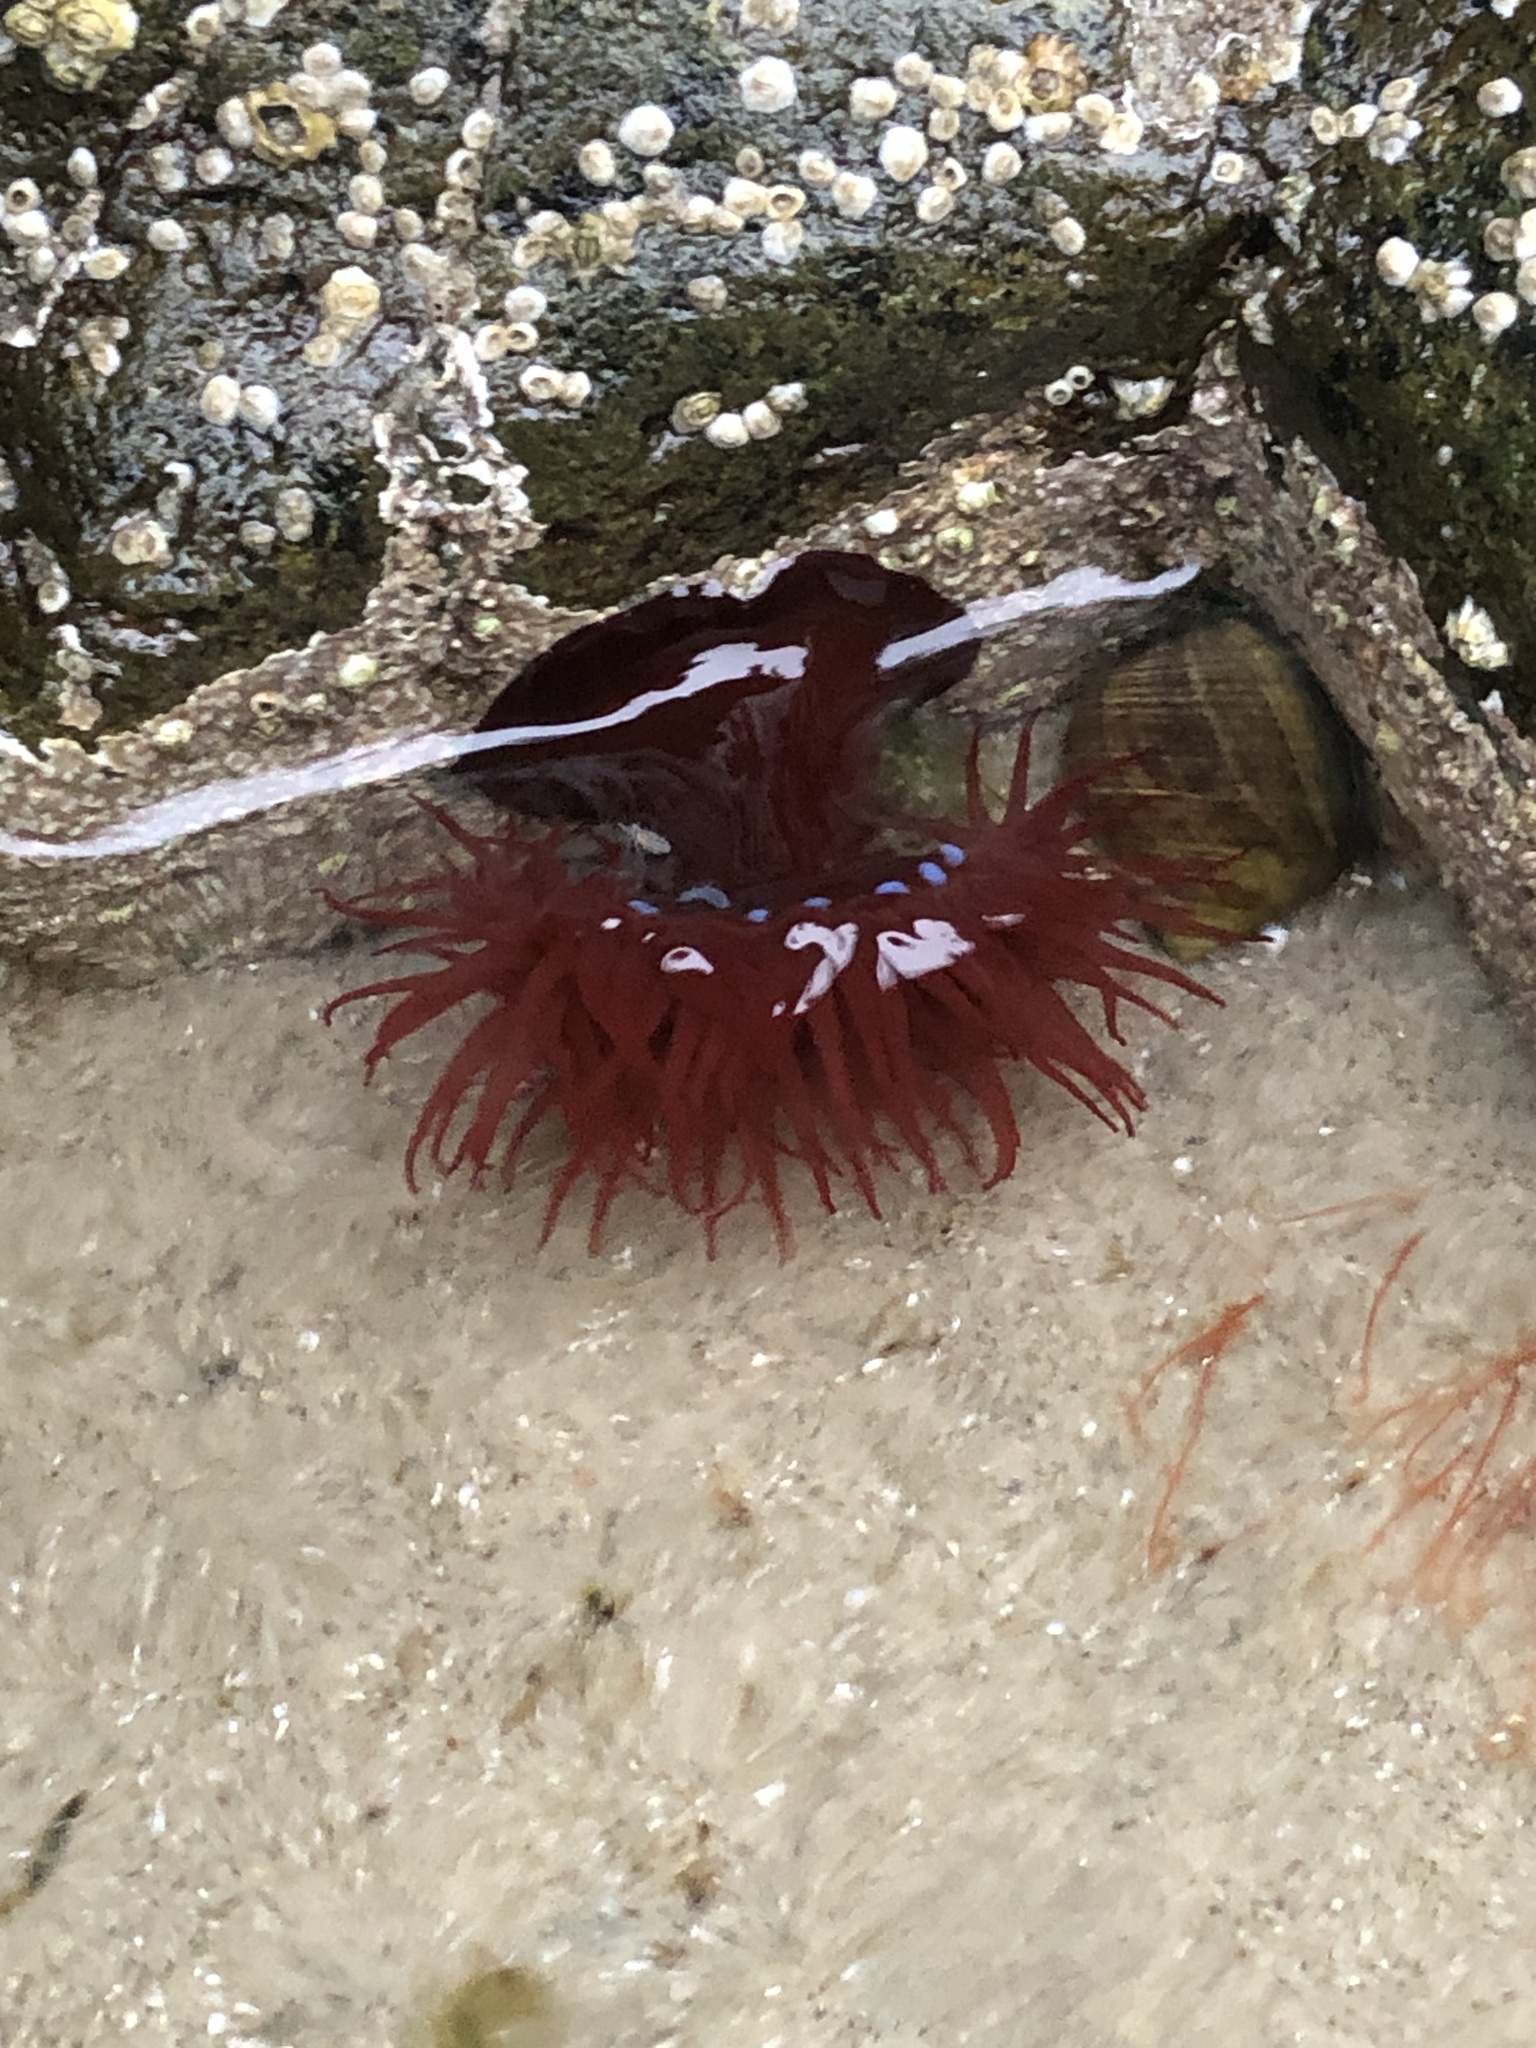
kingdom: Animalia
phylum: Cnidaria
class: Anthozoa
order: Actiniaria
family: Actiniidae
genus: Actinia
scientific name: Actinia equina
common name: Beadlet anemone
